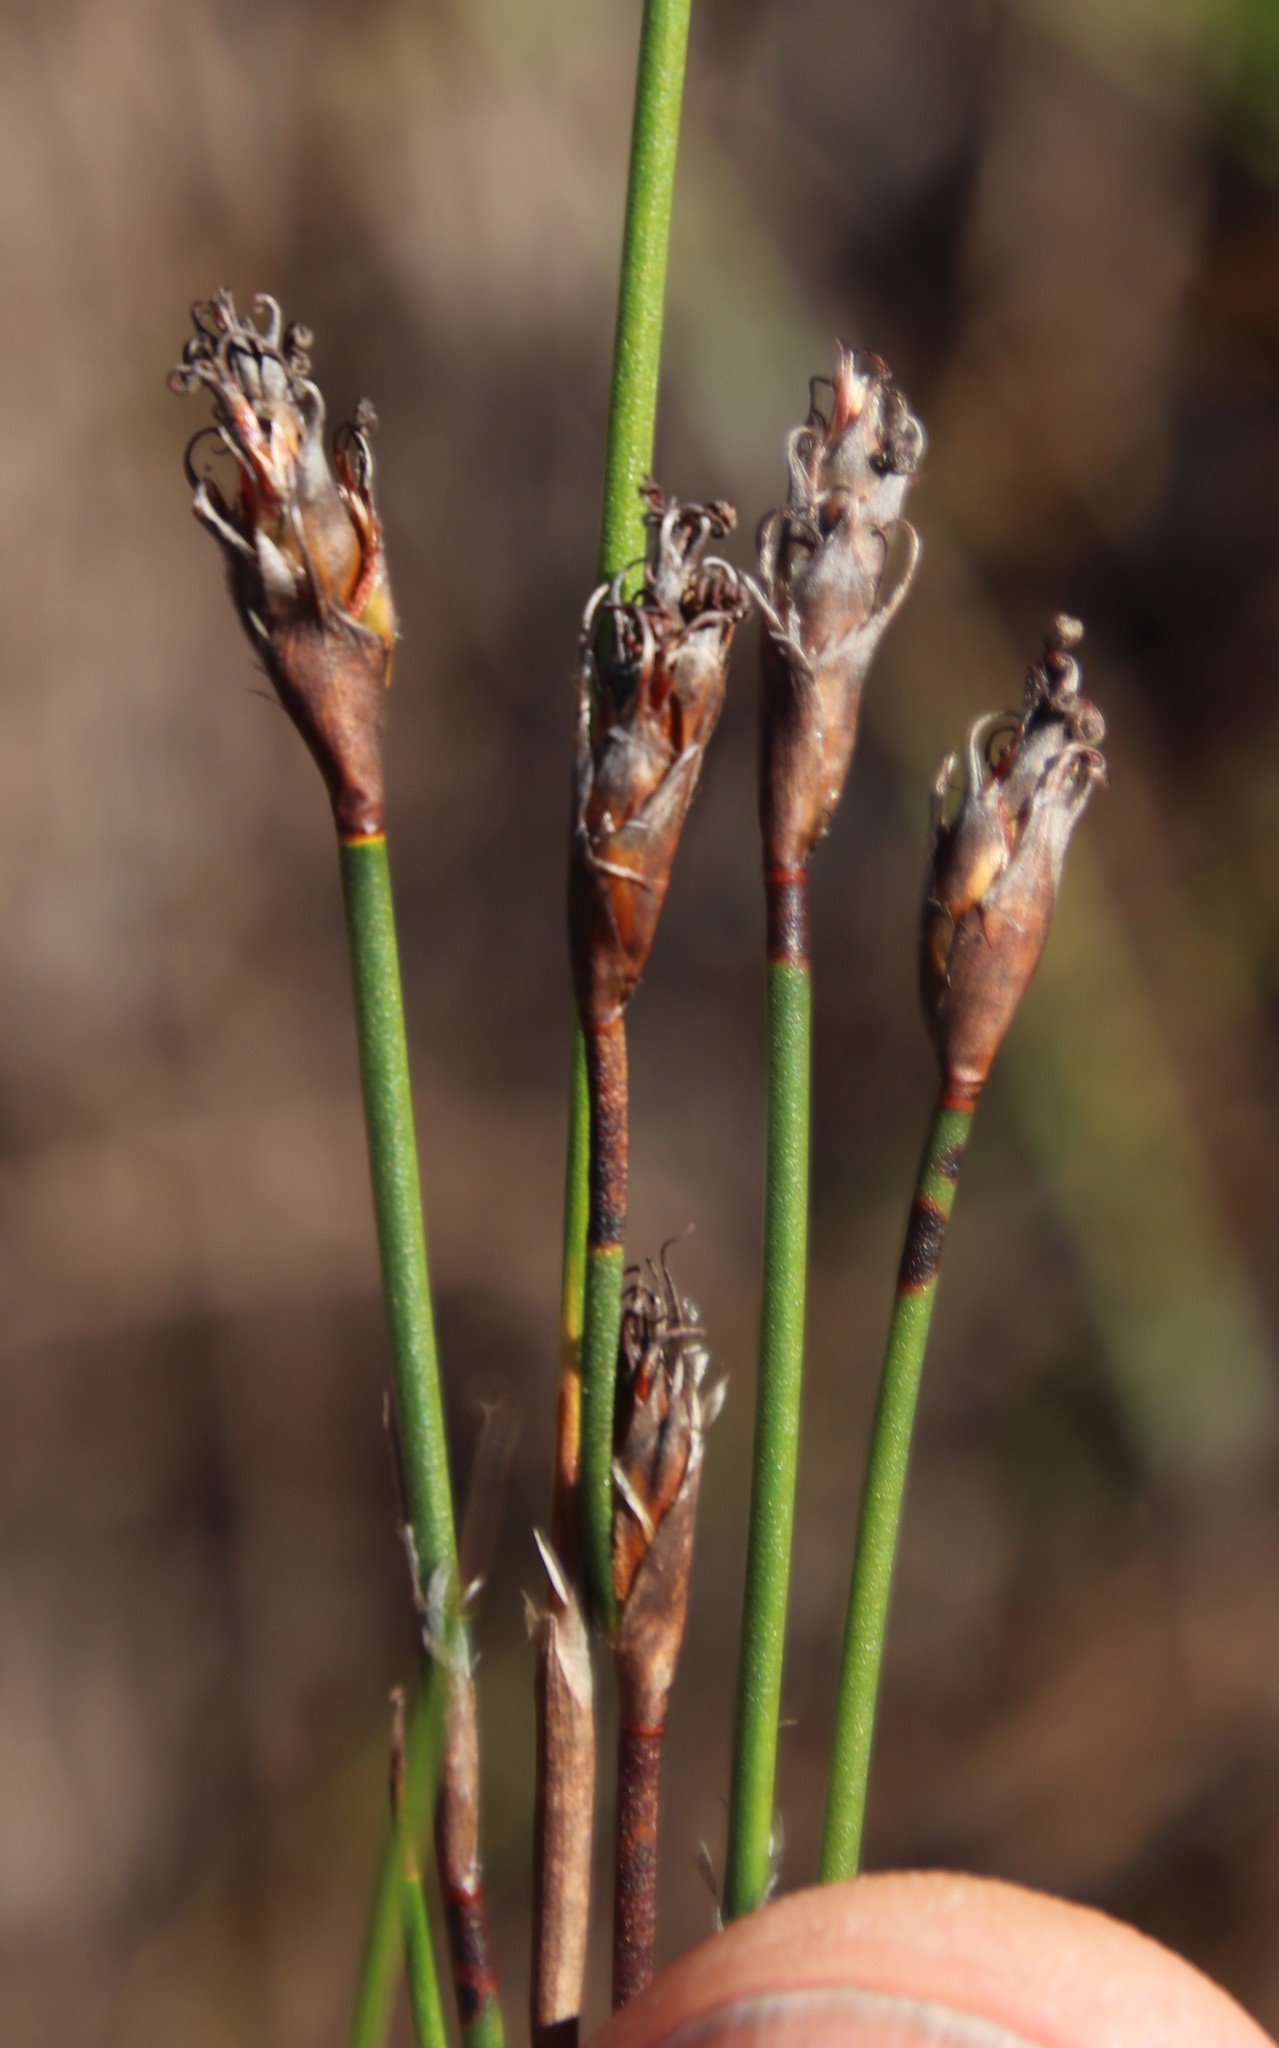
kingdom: Plantae
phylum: Tracheophyta
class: Liliopsida
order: Poales
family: Restionaceae
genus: Restio
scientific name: Restio capensis
